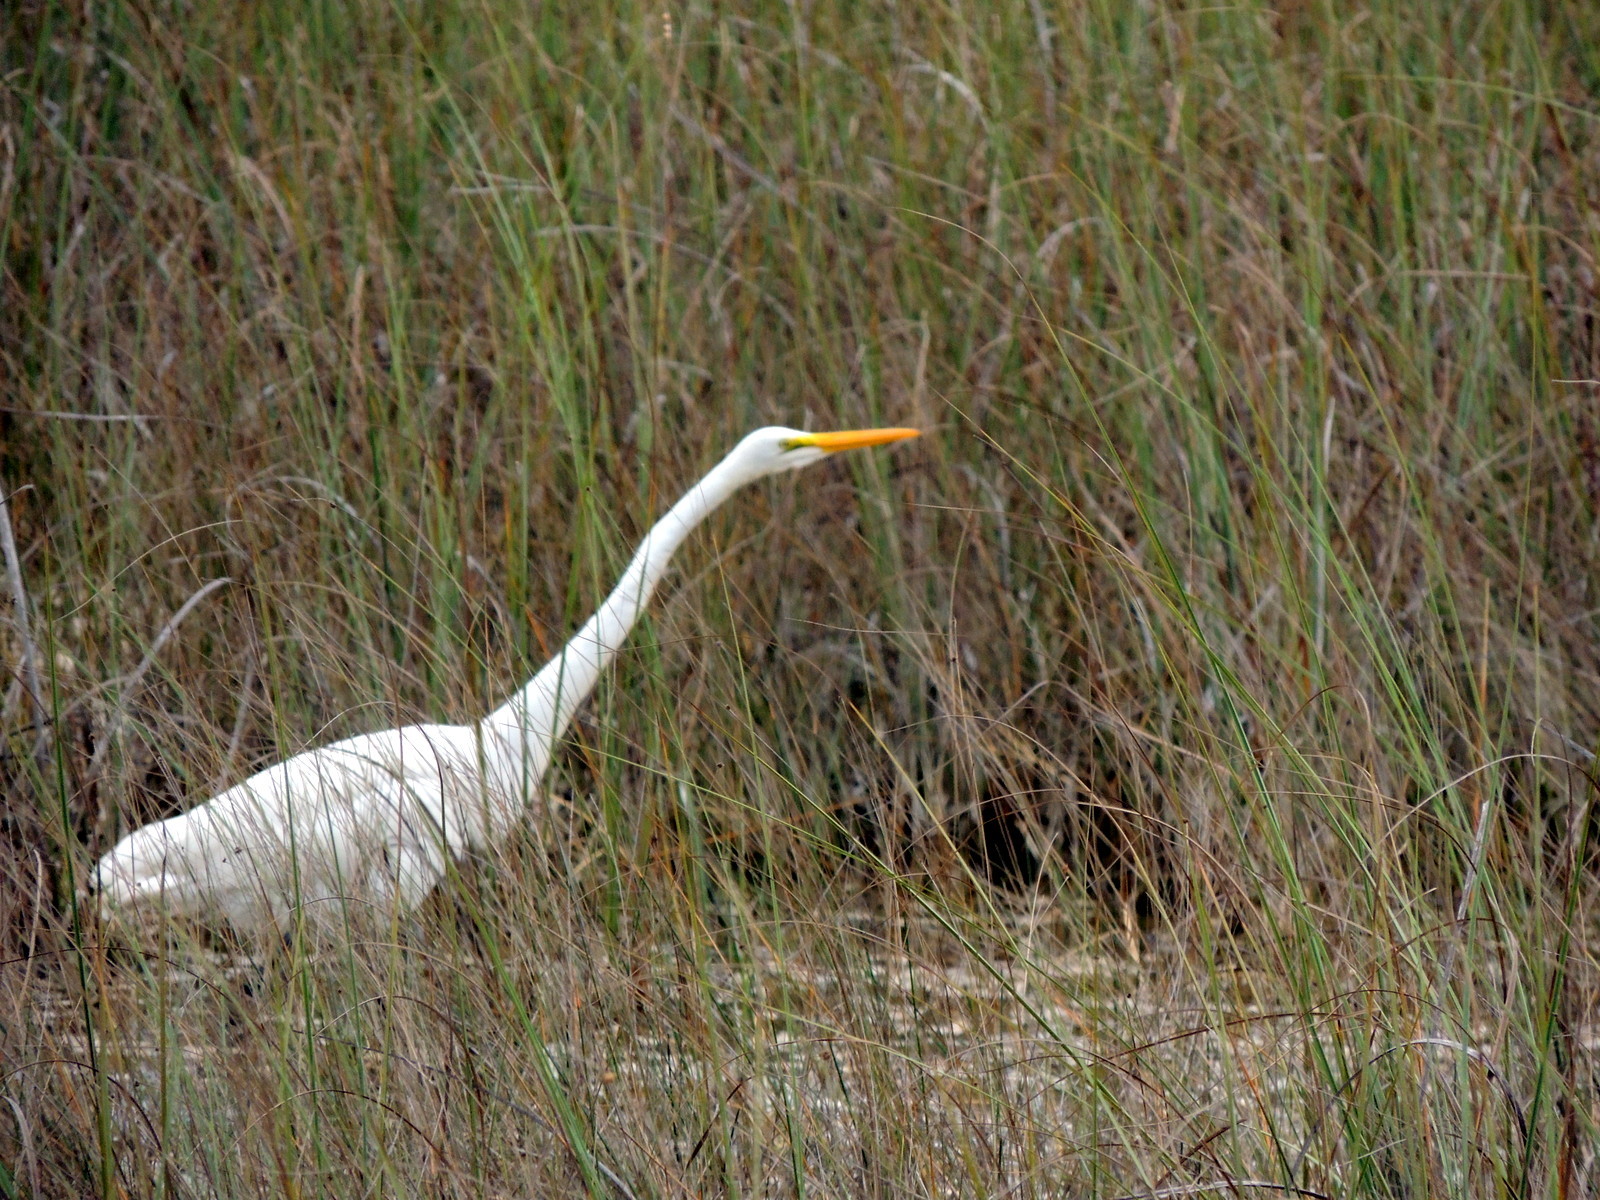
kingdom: Animalia
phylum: Chordata
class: Aves
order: Pelecaniformes
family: Ardeidae
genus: Ardea
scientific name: Ardea alba
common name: Great egret
